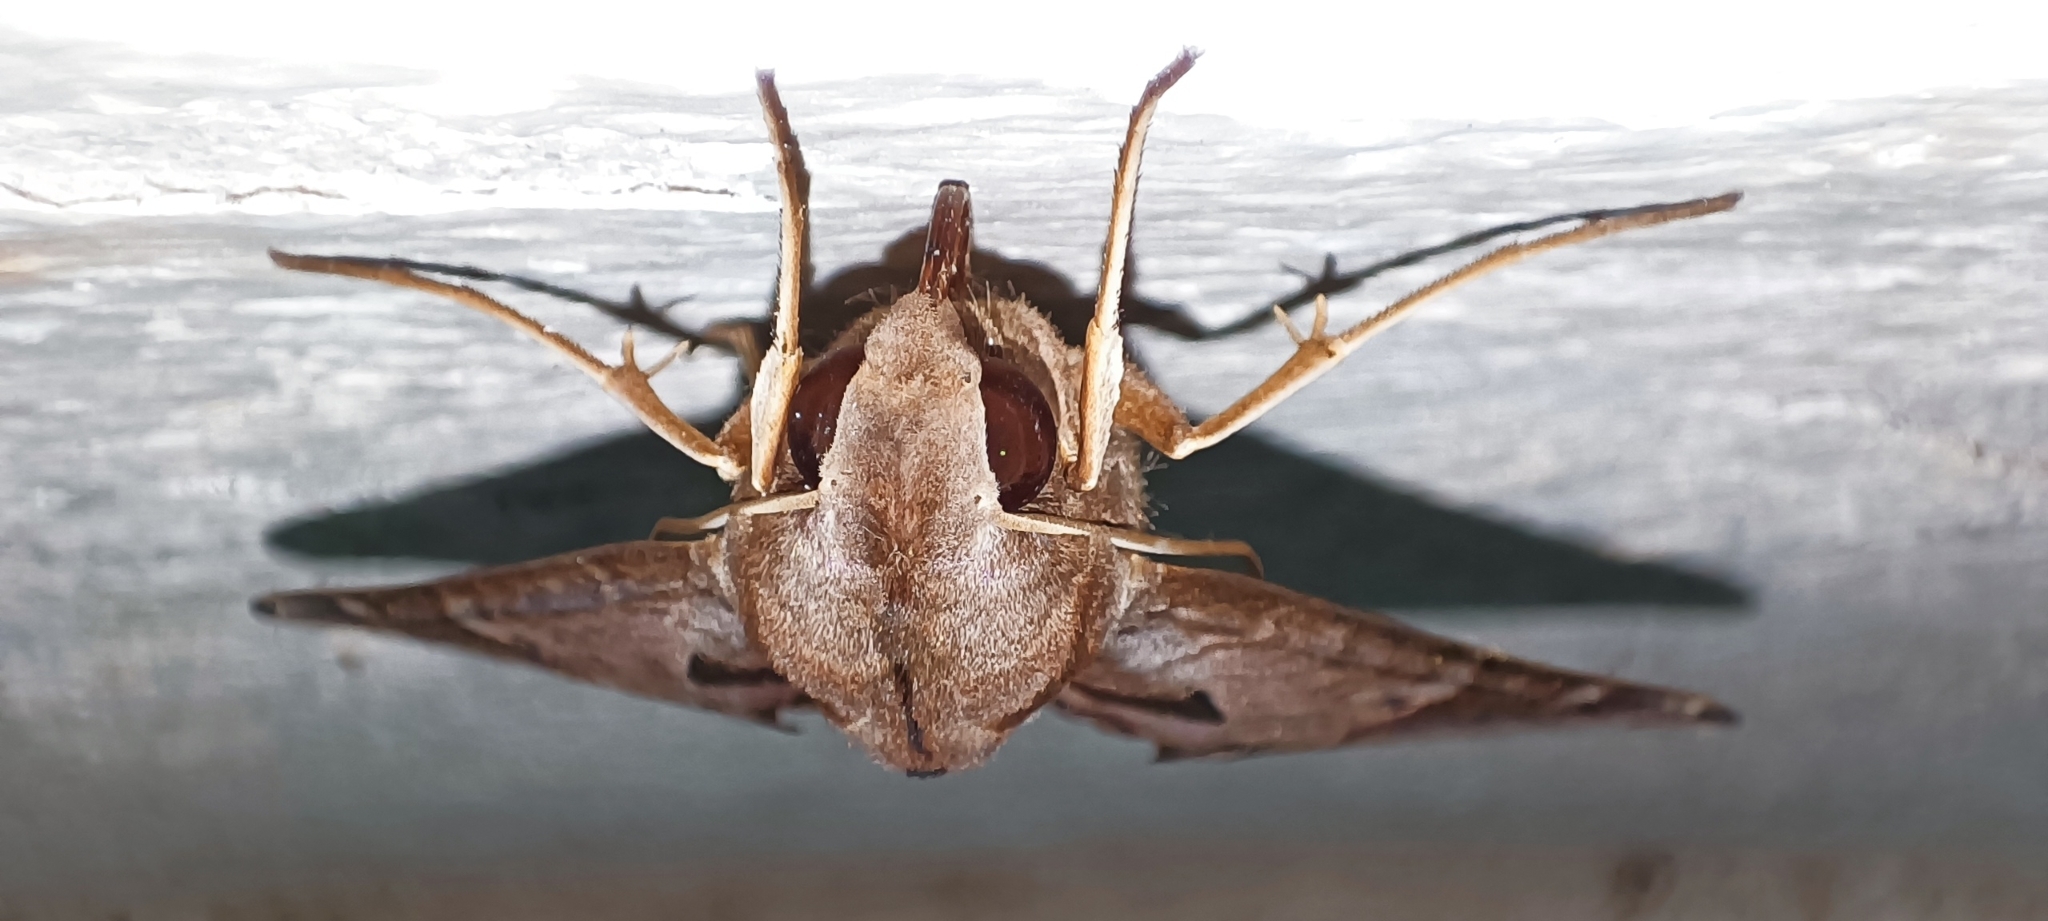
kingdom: Animalia
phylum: Arthropoda
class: Insecta
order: Lepidoptera
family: Sphingidae
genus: Eumorpha
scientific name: Eumorpha satellitia
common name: Satellite sphinx
